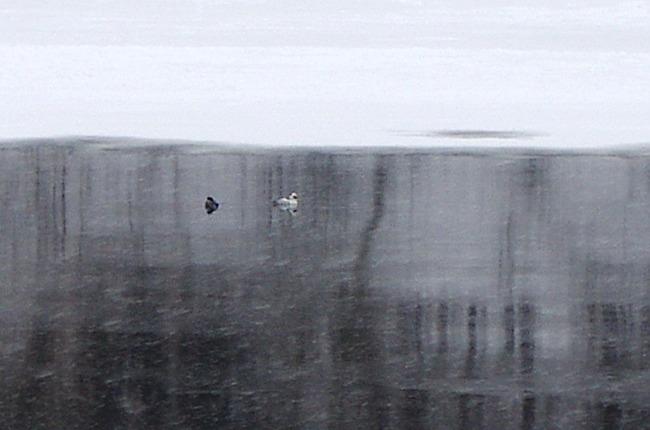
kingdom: Animalia
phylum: Chordata
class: Aves
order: Anseriformes
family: Anatidae
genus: Mergellus
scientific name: Mergellus albellus
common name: Smew
